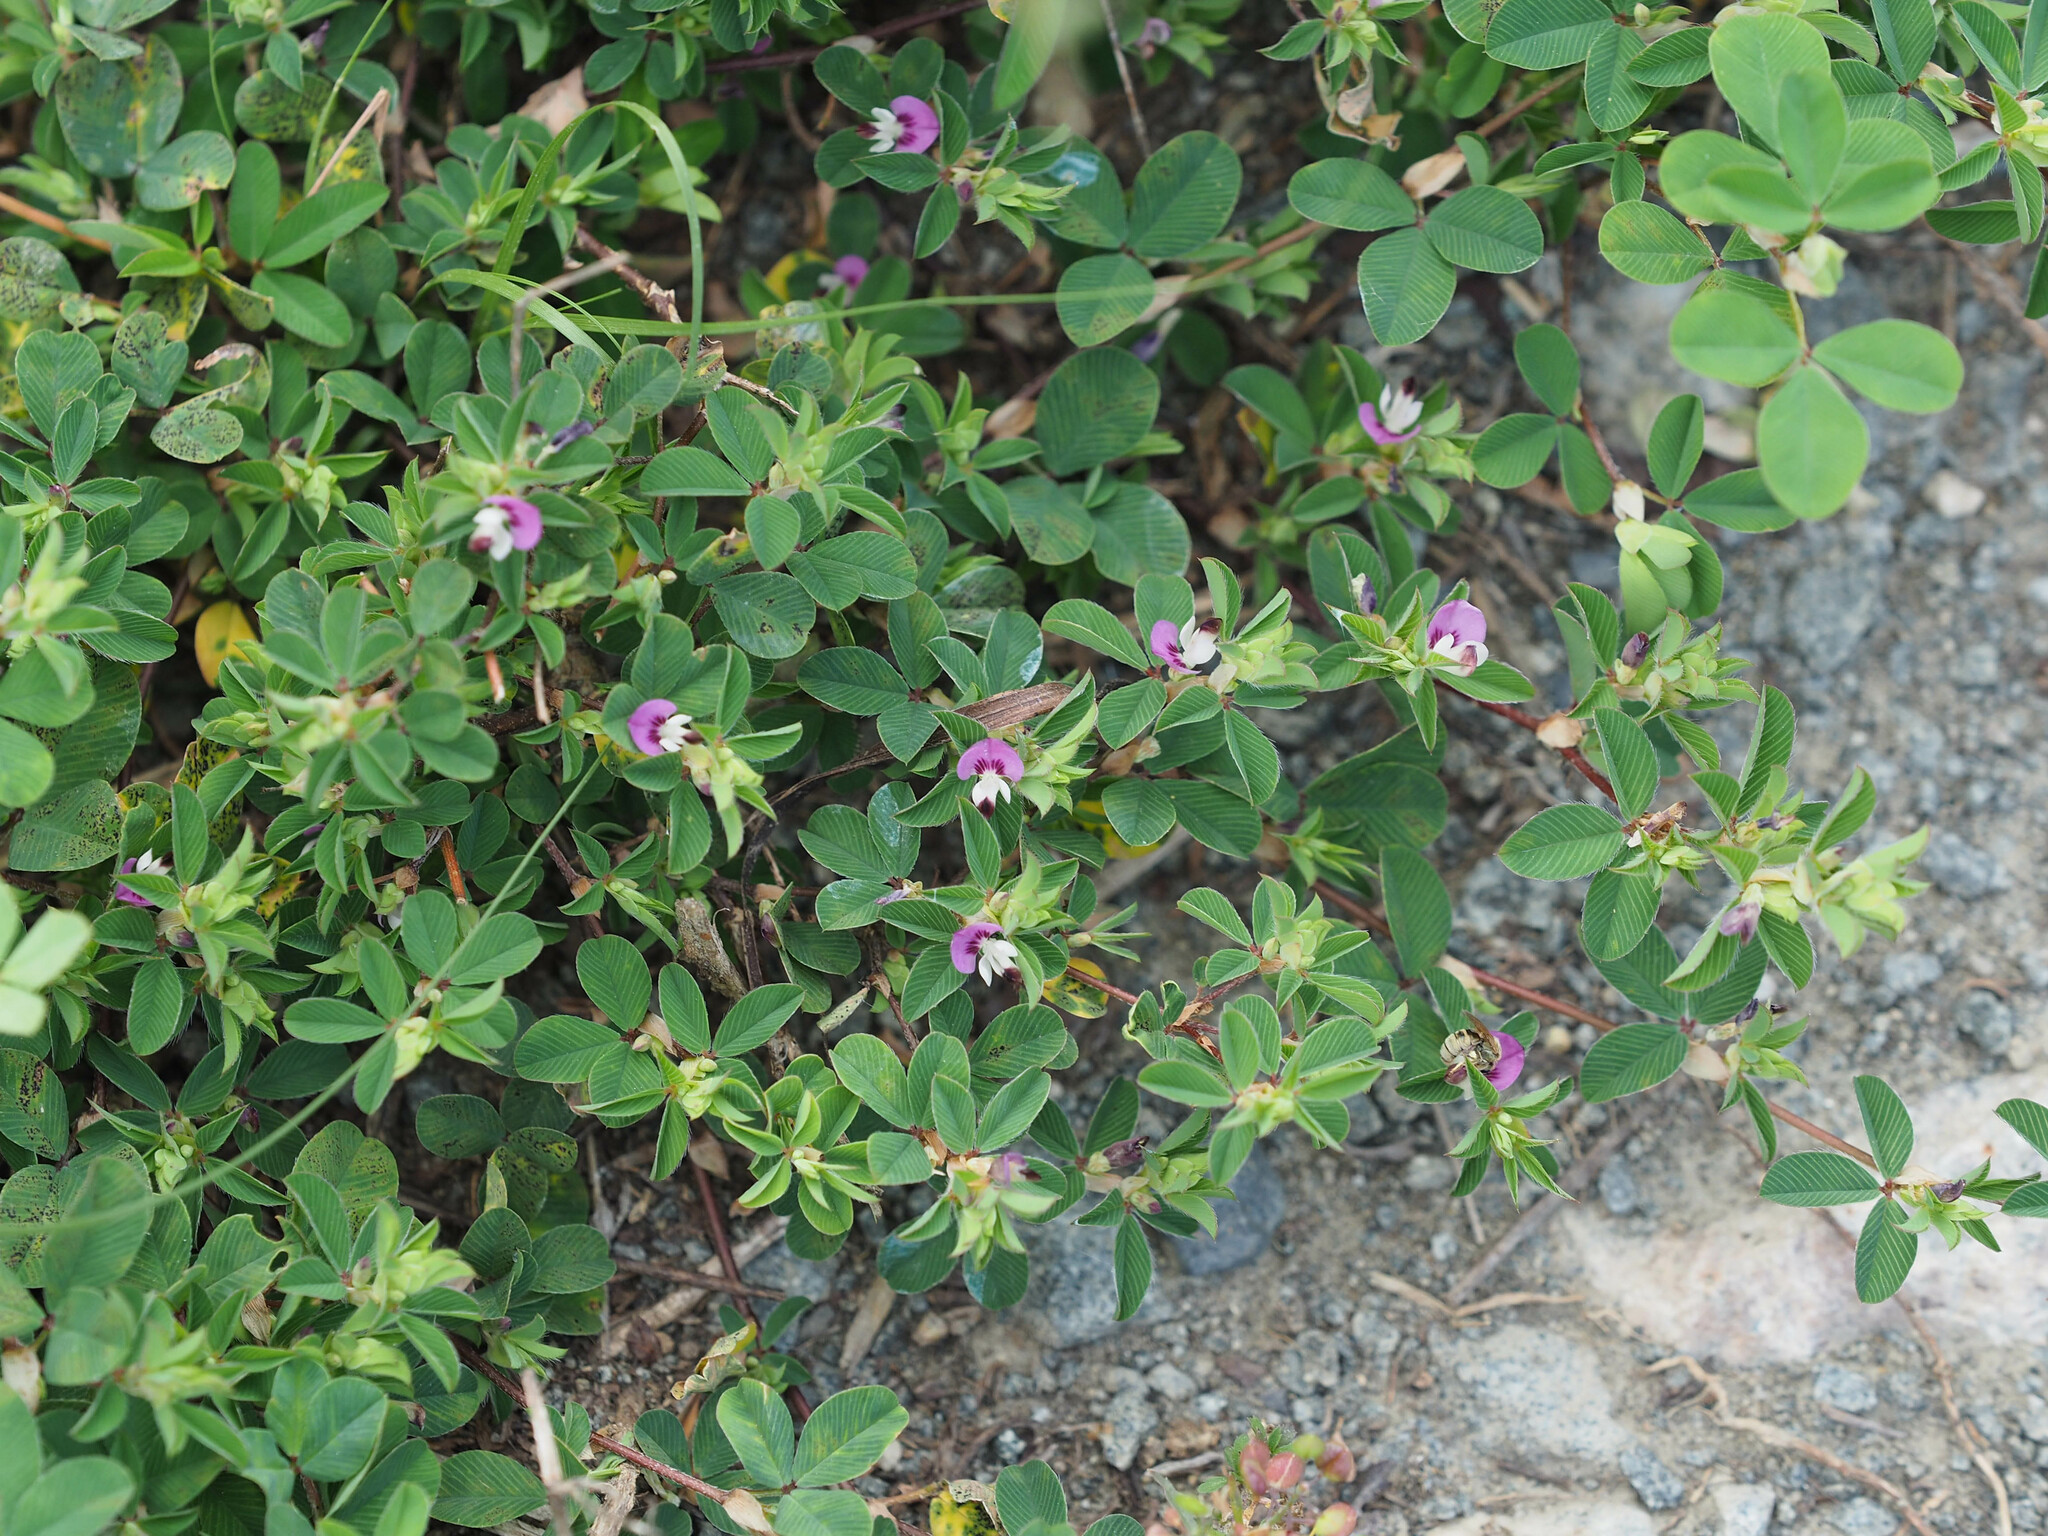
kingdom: Plantae
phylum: Tracheophyta
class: Magnoliopsida
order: Fabales
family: Fabaceae
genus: Kummerowia
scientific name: Kummerowia stipulacea
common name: Korean clover
